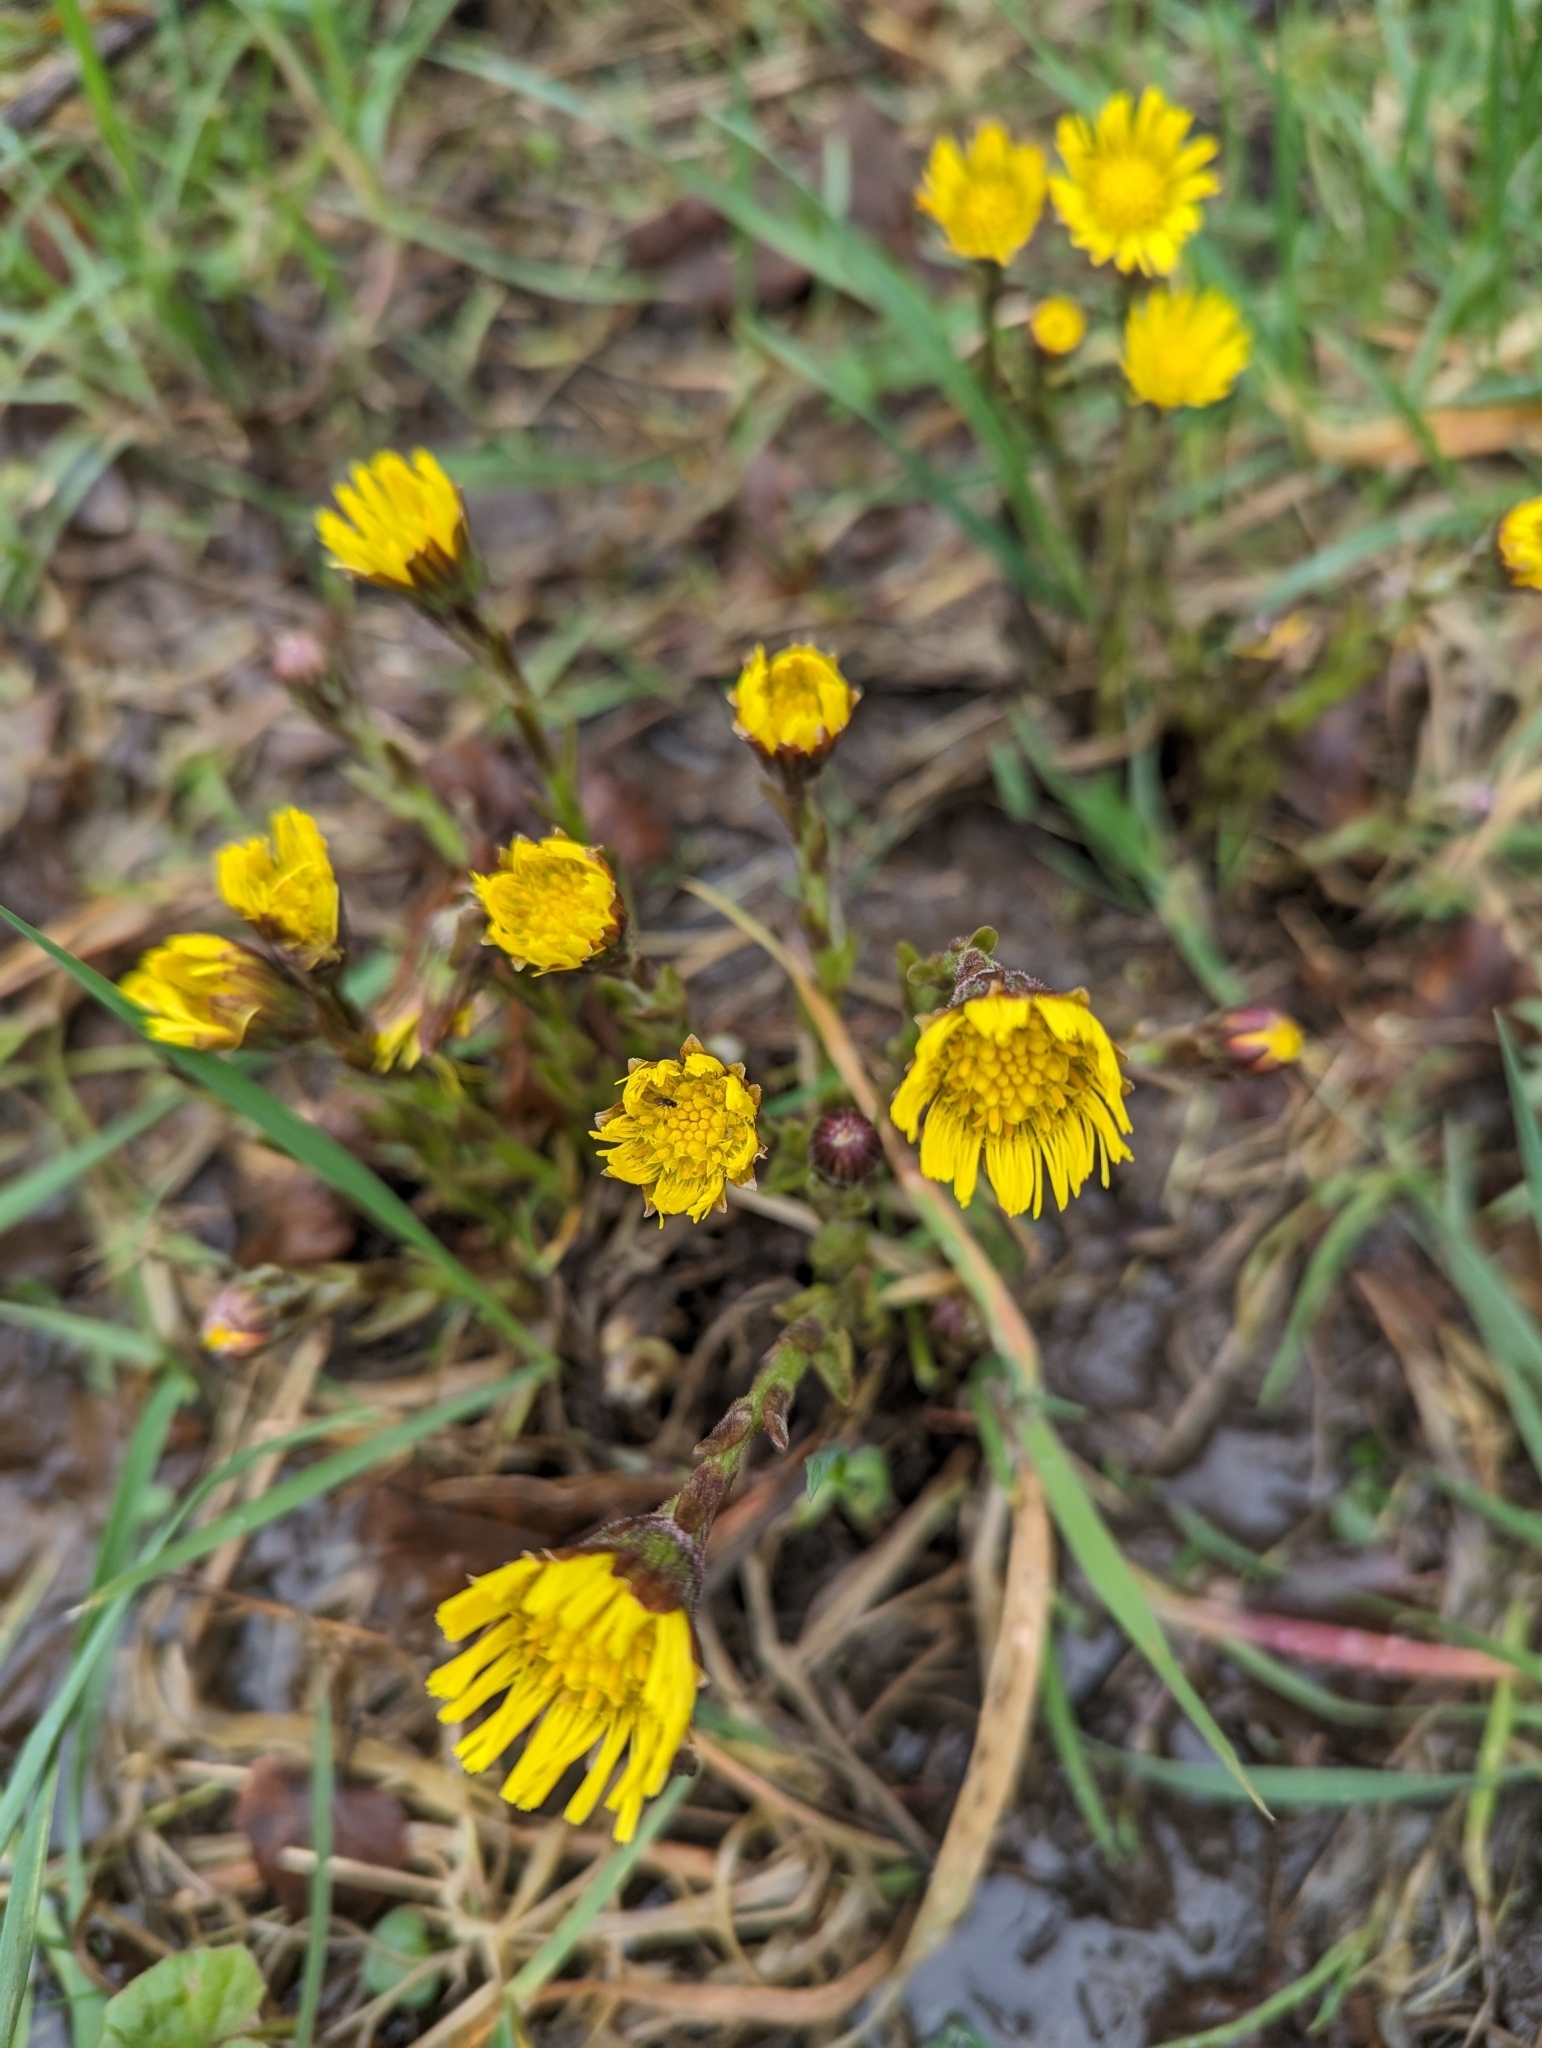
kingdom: Plantae
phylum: Tracheophyta
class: Magnoliopsida
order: Asterales
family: Asteraceae
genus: Tussilago
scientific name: Tussilago farfara
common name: Coltsfoot
